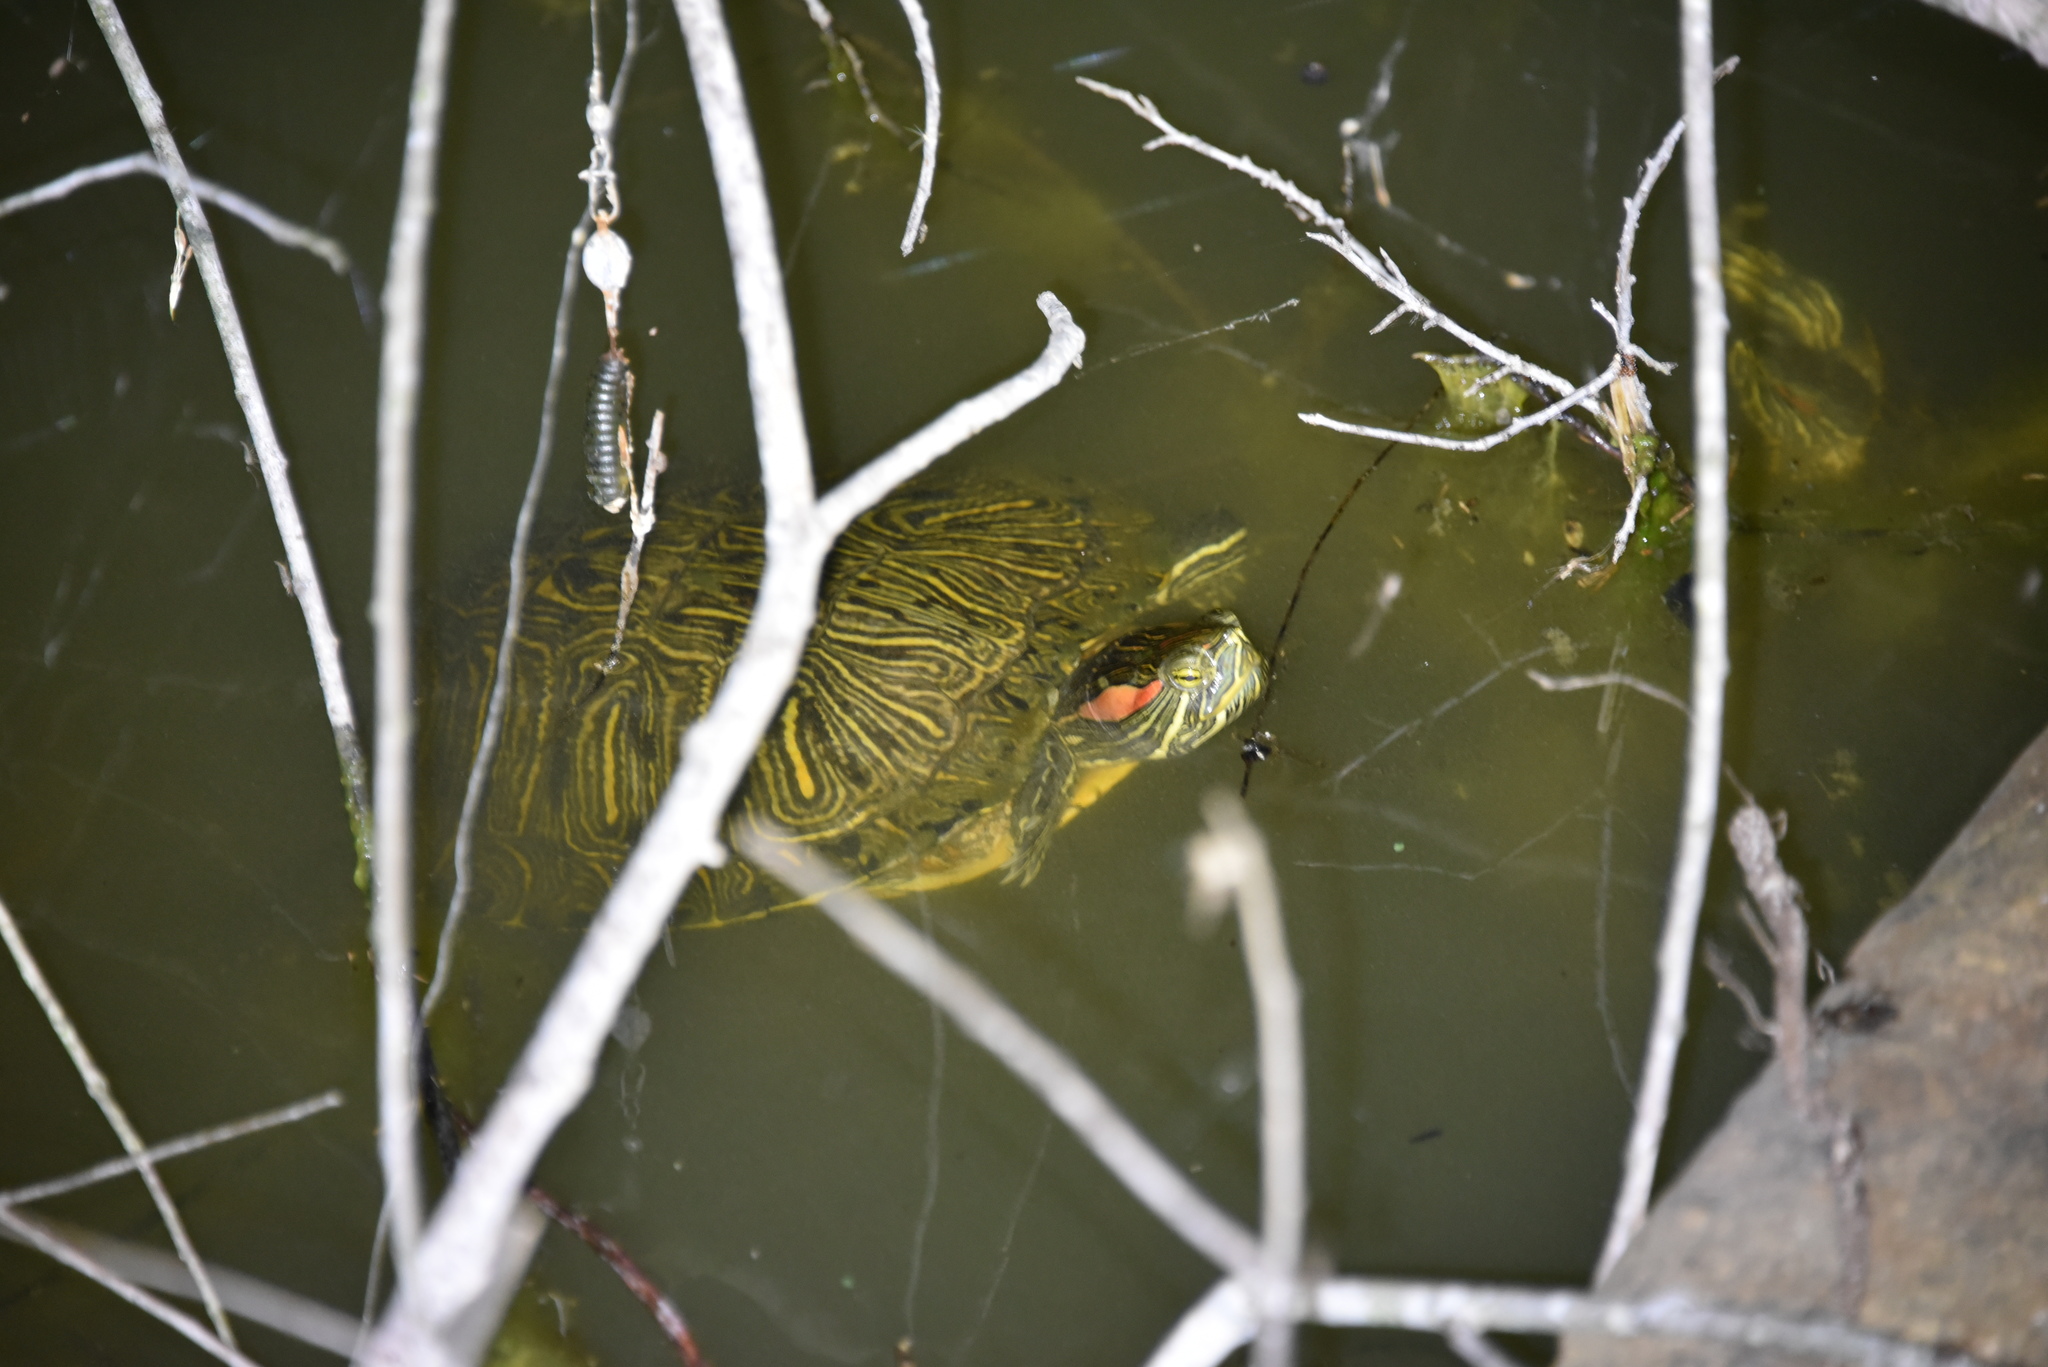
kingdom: Animalia
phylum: Chordata
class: Testudines
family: Emydidae
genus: Trachemys
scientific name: Trachemys scripta
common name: Slider
